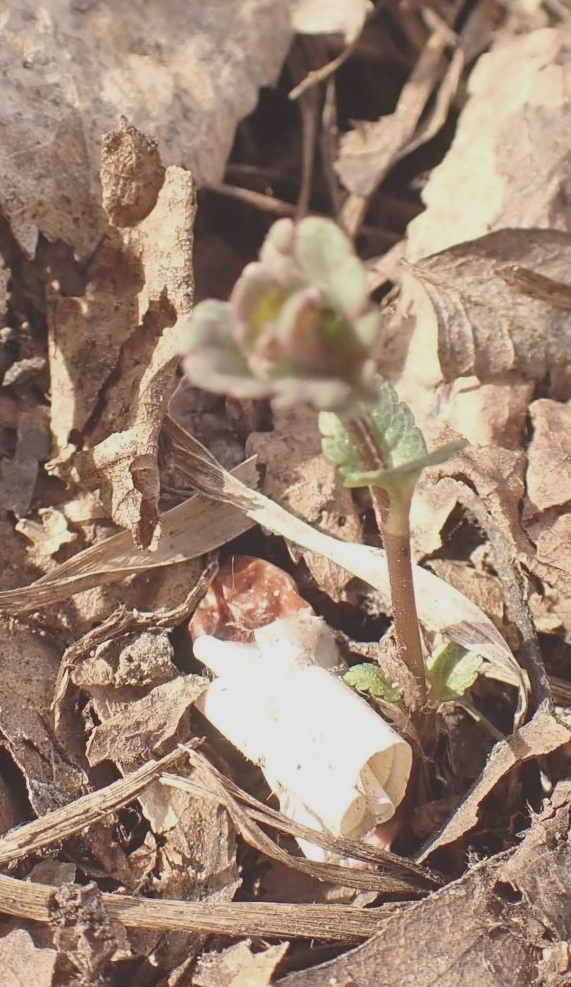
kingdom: Plantae
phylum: Tracheophyta
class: Magnoliopsida
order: Lamiales
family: Plantaginaceae
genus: Veronica
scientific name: Veronica chamaedrys
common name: Germander speedwell
